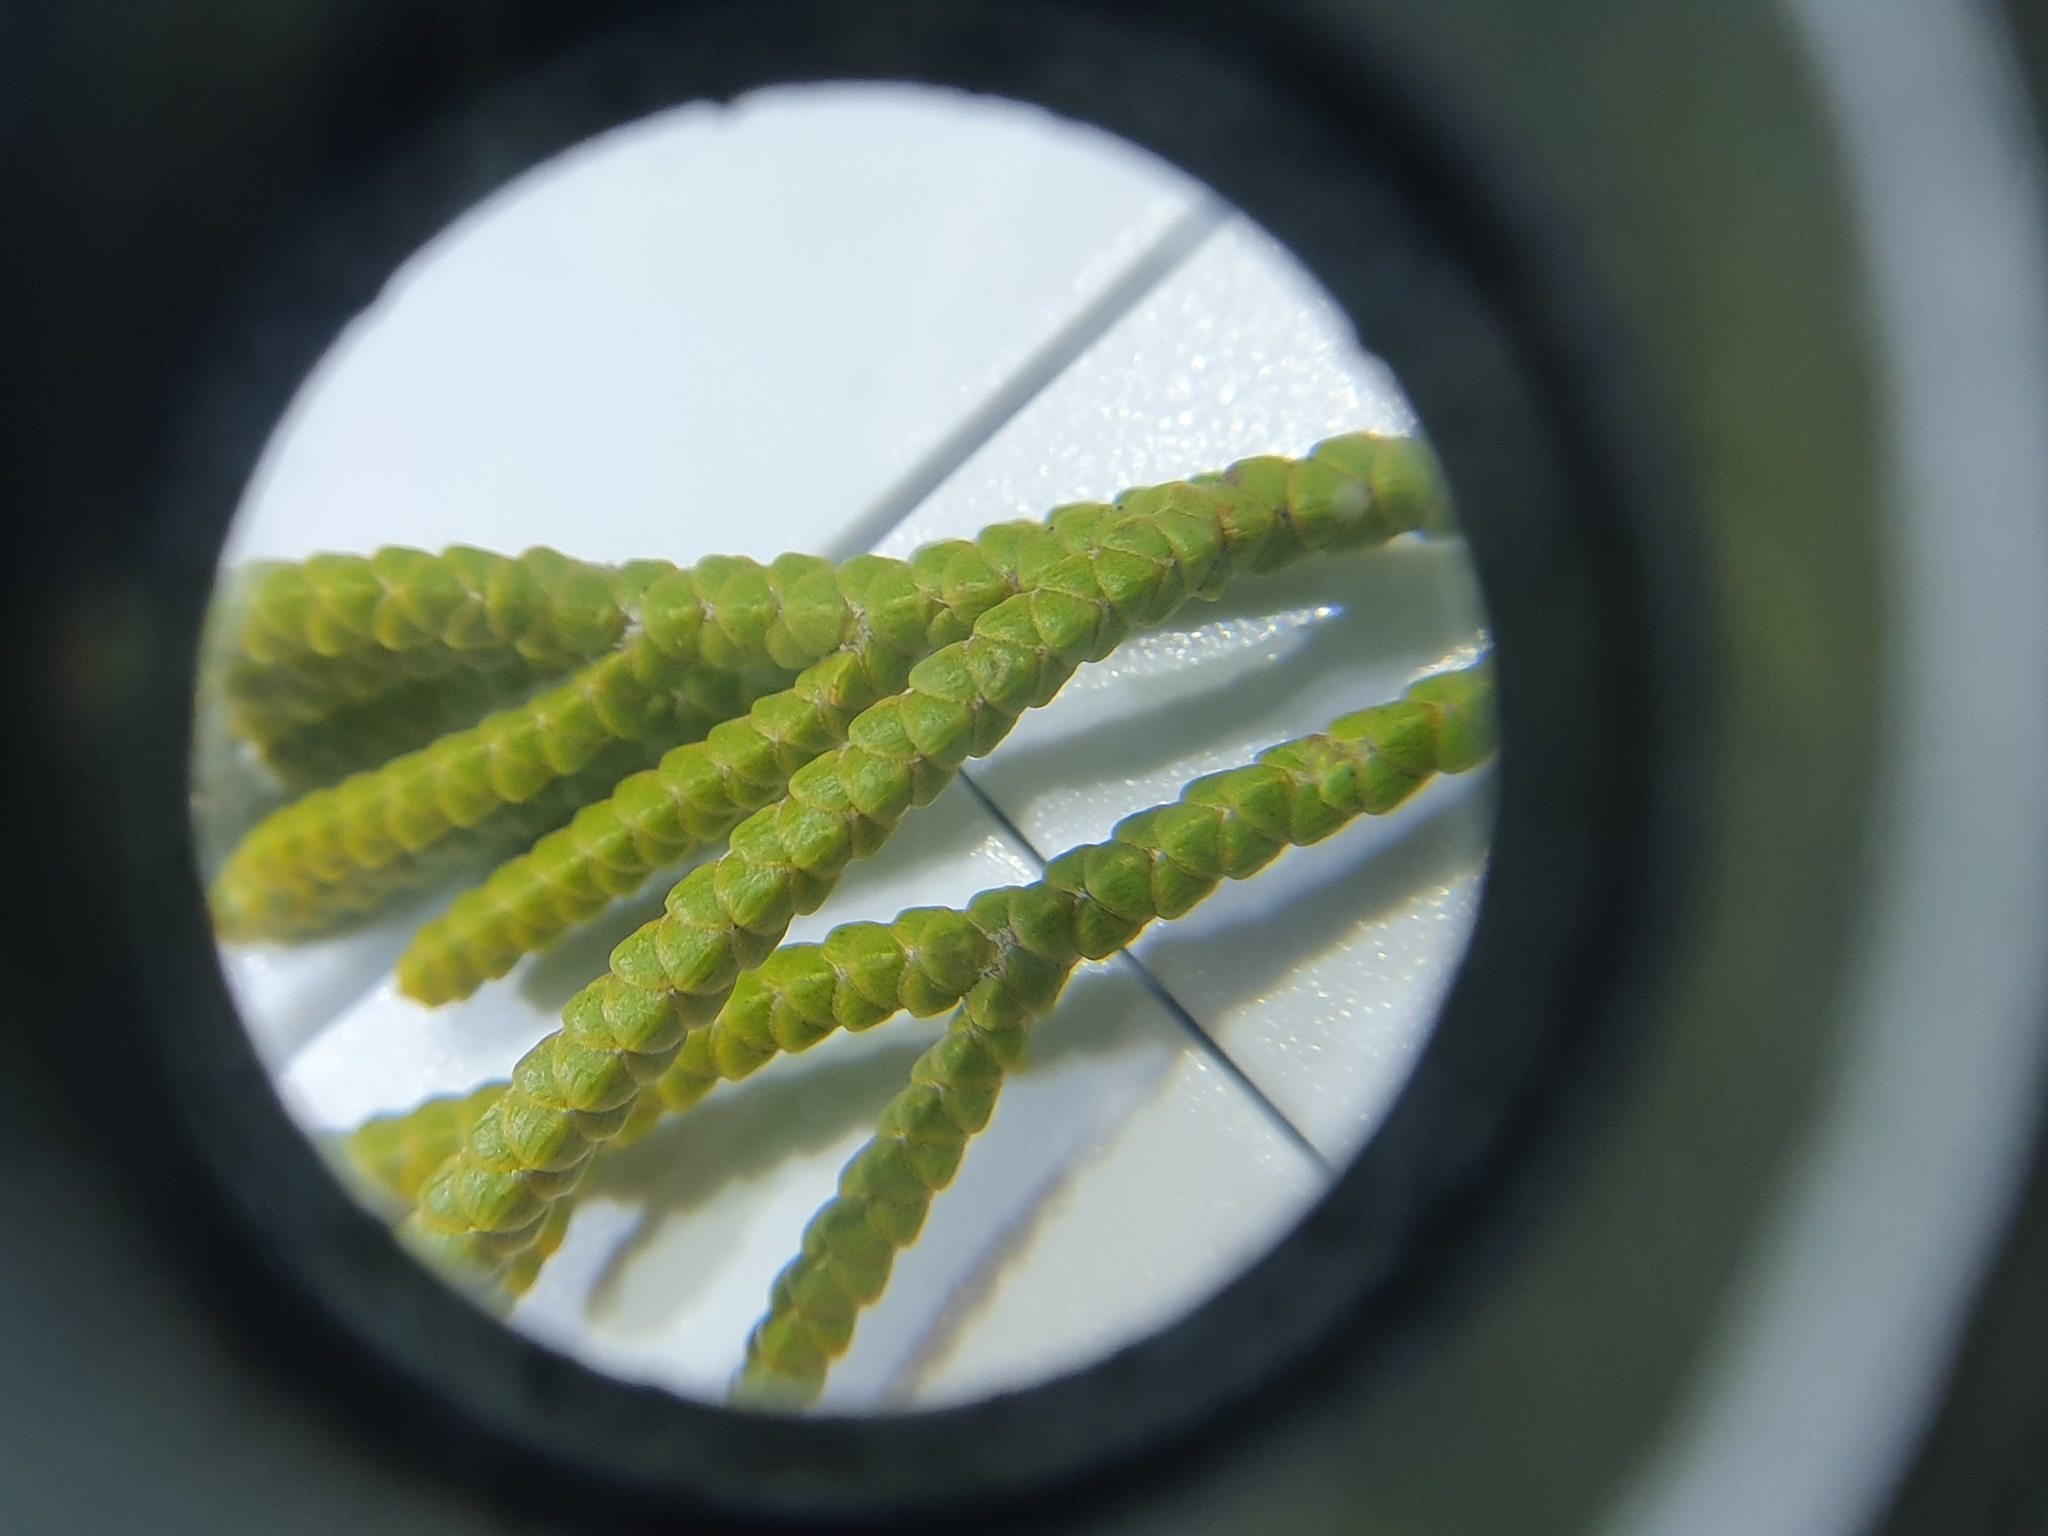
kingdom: Plantae
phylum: Tracheophyta
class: Magnoliopsida
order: Lamiales
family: Plantaginaceae
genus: Veronica
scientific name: Veronica poppelwellii
